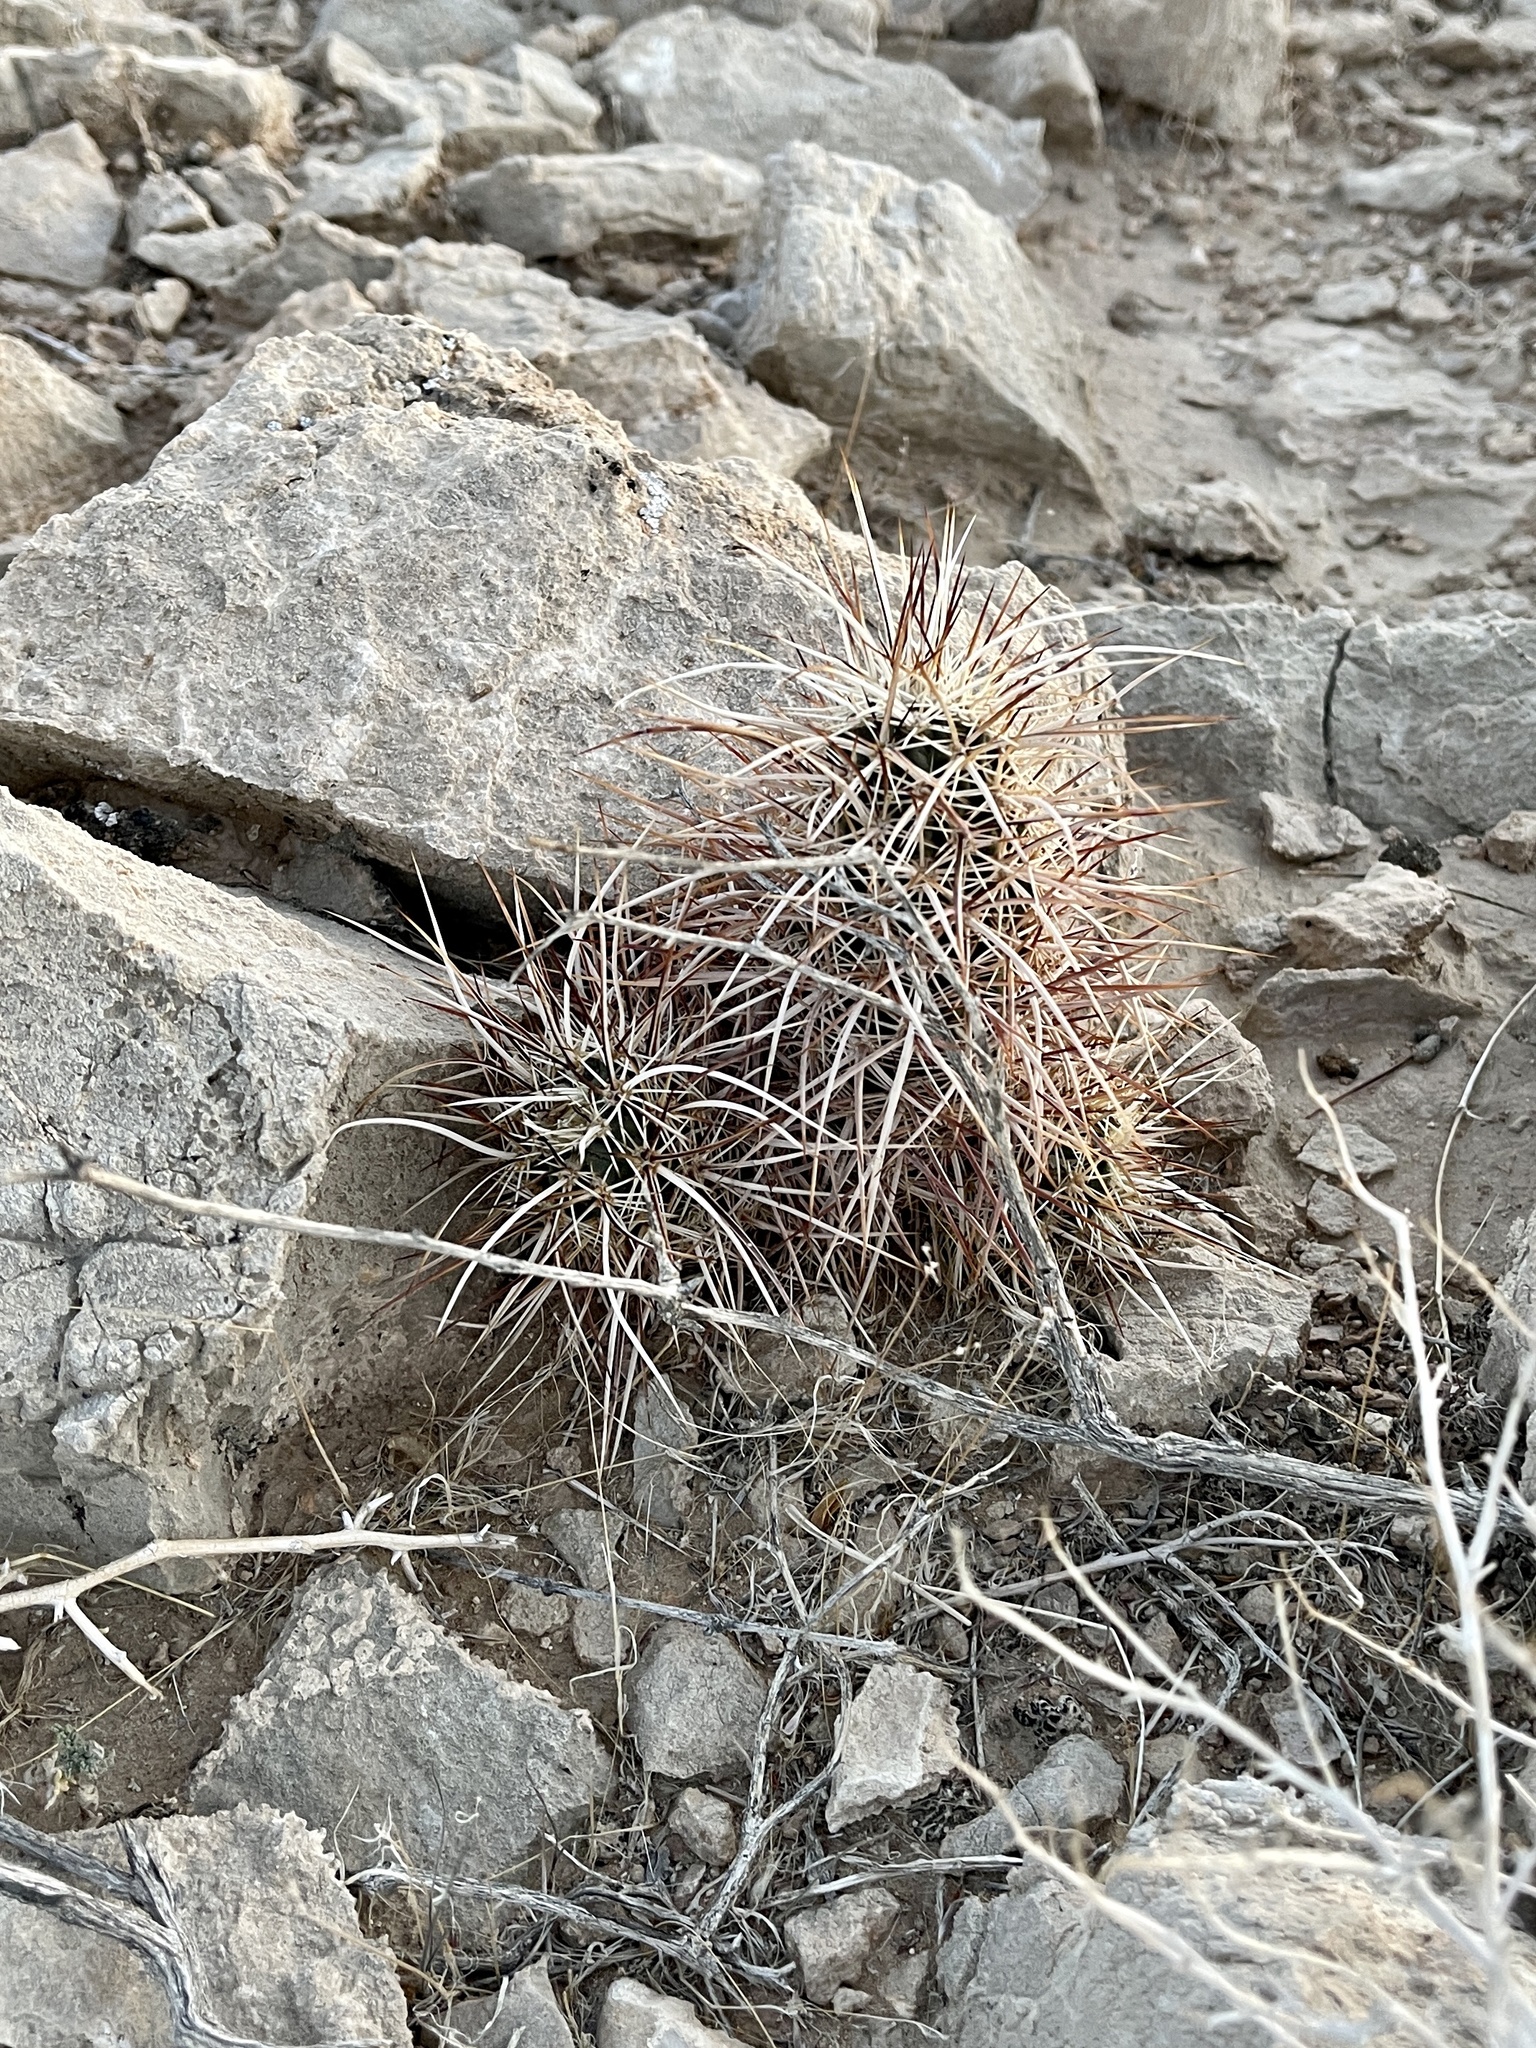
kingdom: Plantae
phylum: Tracheophyta
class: Magnoliopsida
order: Caryophyllales
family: Cactaceae
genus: Echinocereus
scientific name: Echinocereus engelmannii
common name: Engelmann's hedgehog cactus
